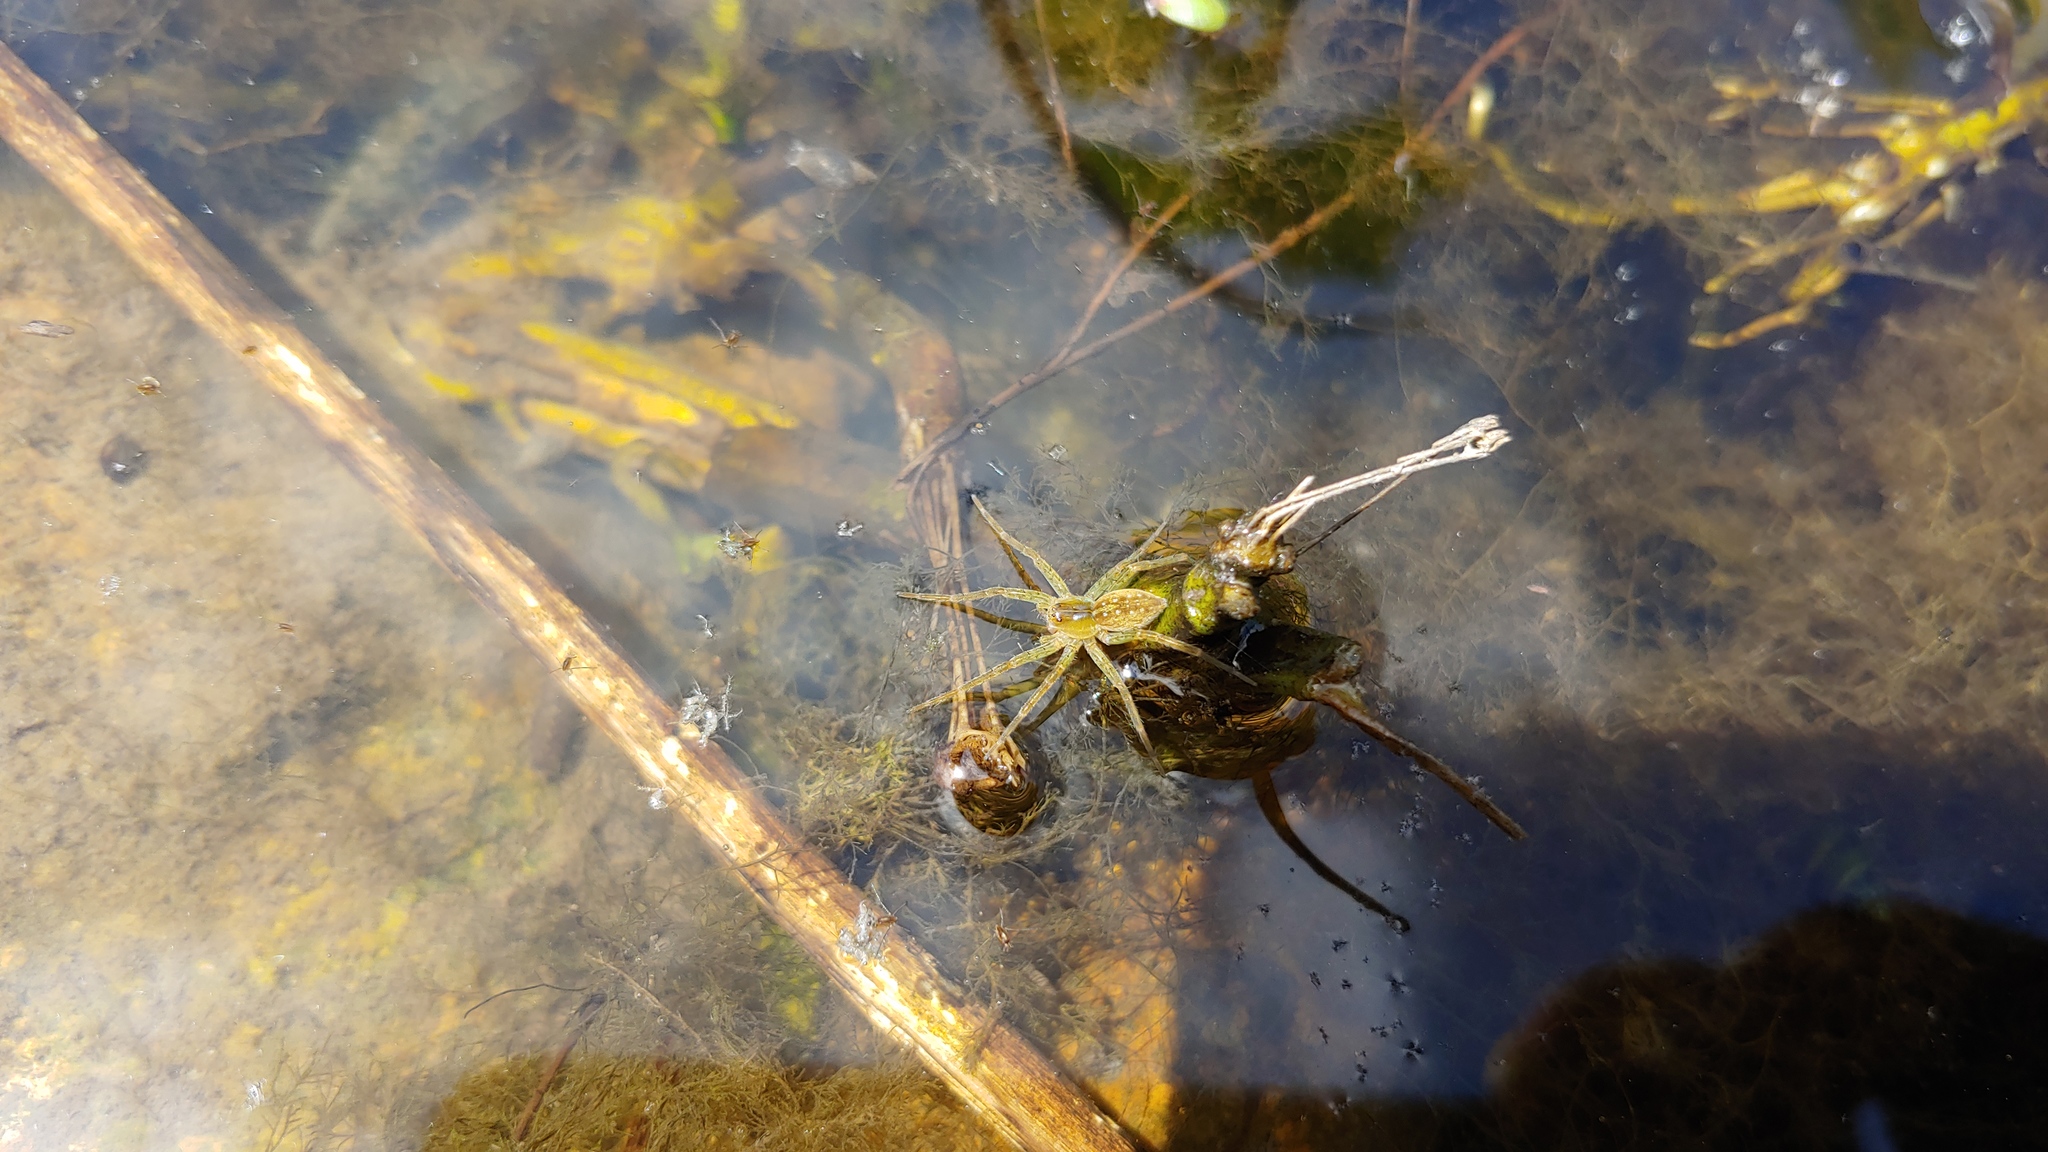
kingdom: Animalia
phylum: Arthropoda
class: Arachnida
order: Araneae
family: Pisauridae
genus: Dolomedes
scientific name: Dolomedes triton
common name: Six-spotted fishing spider
